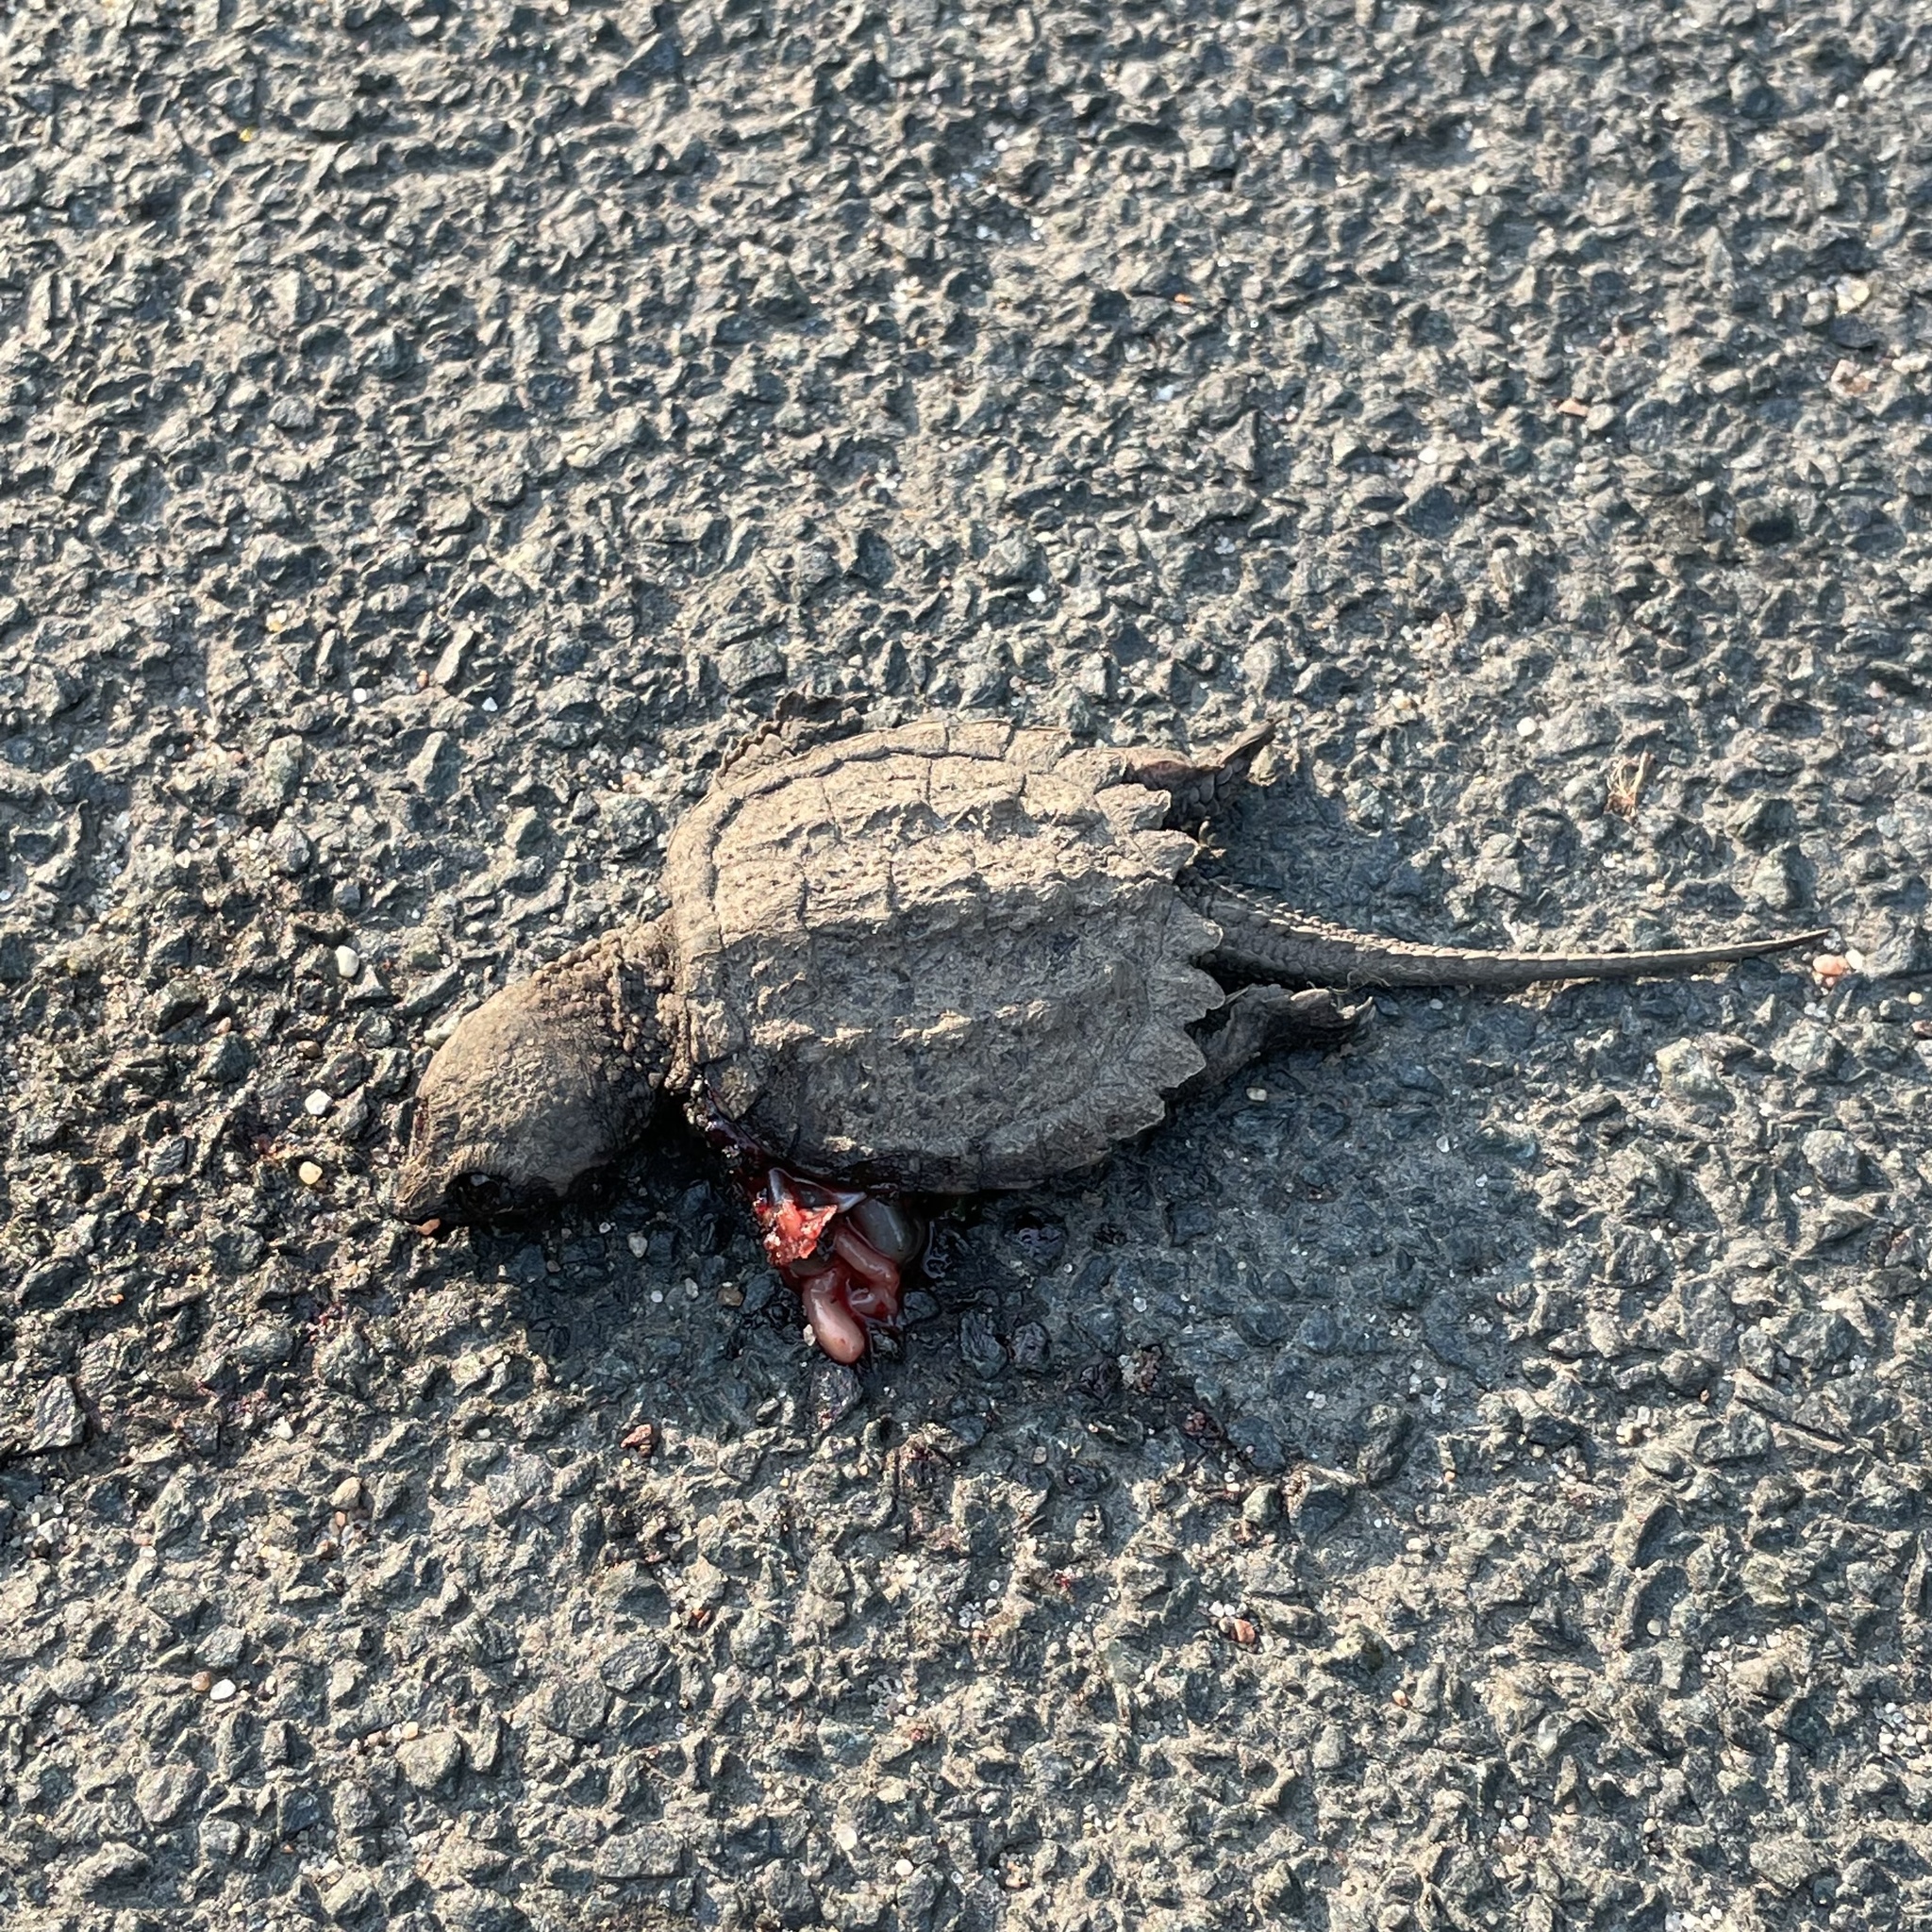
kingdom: Animalia
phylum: Chordata
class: Testudines
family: Chelydridae
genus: Chelydra
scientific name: Chelydra serpentina
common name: Common snapping turtle
